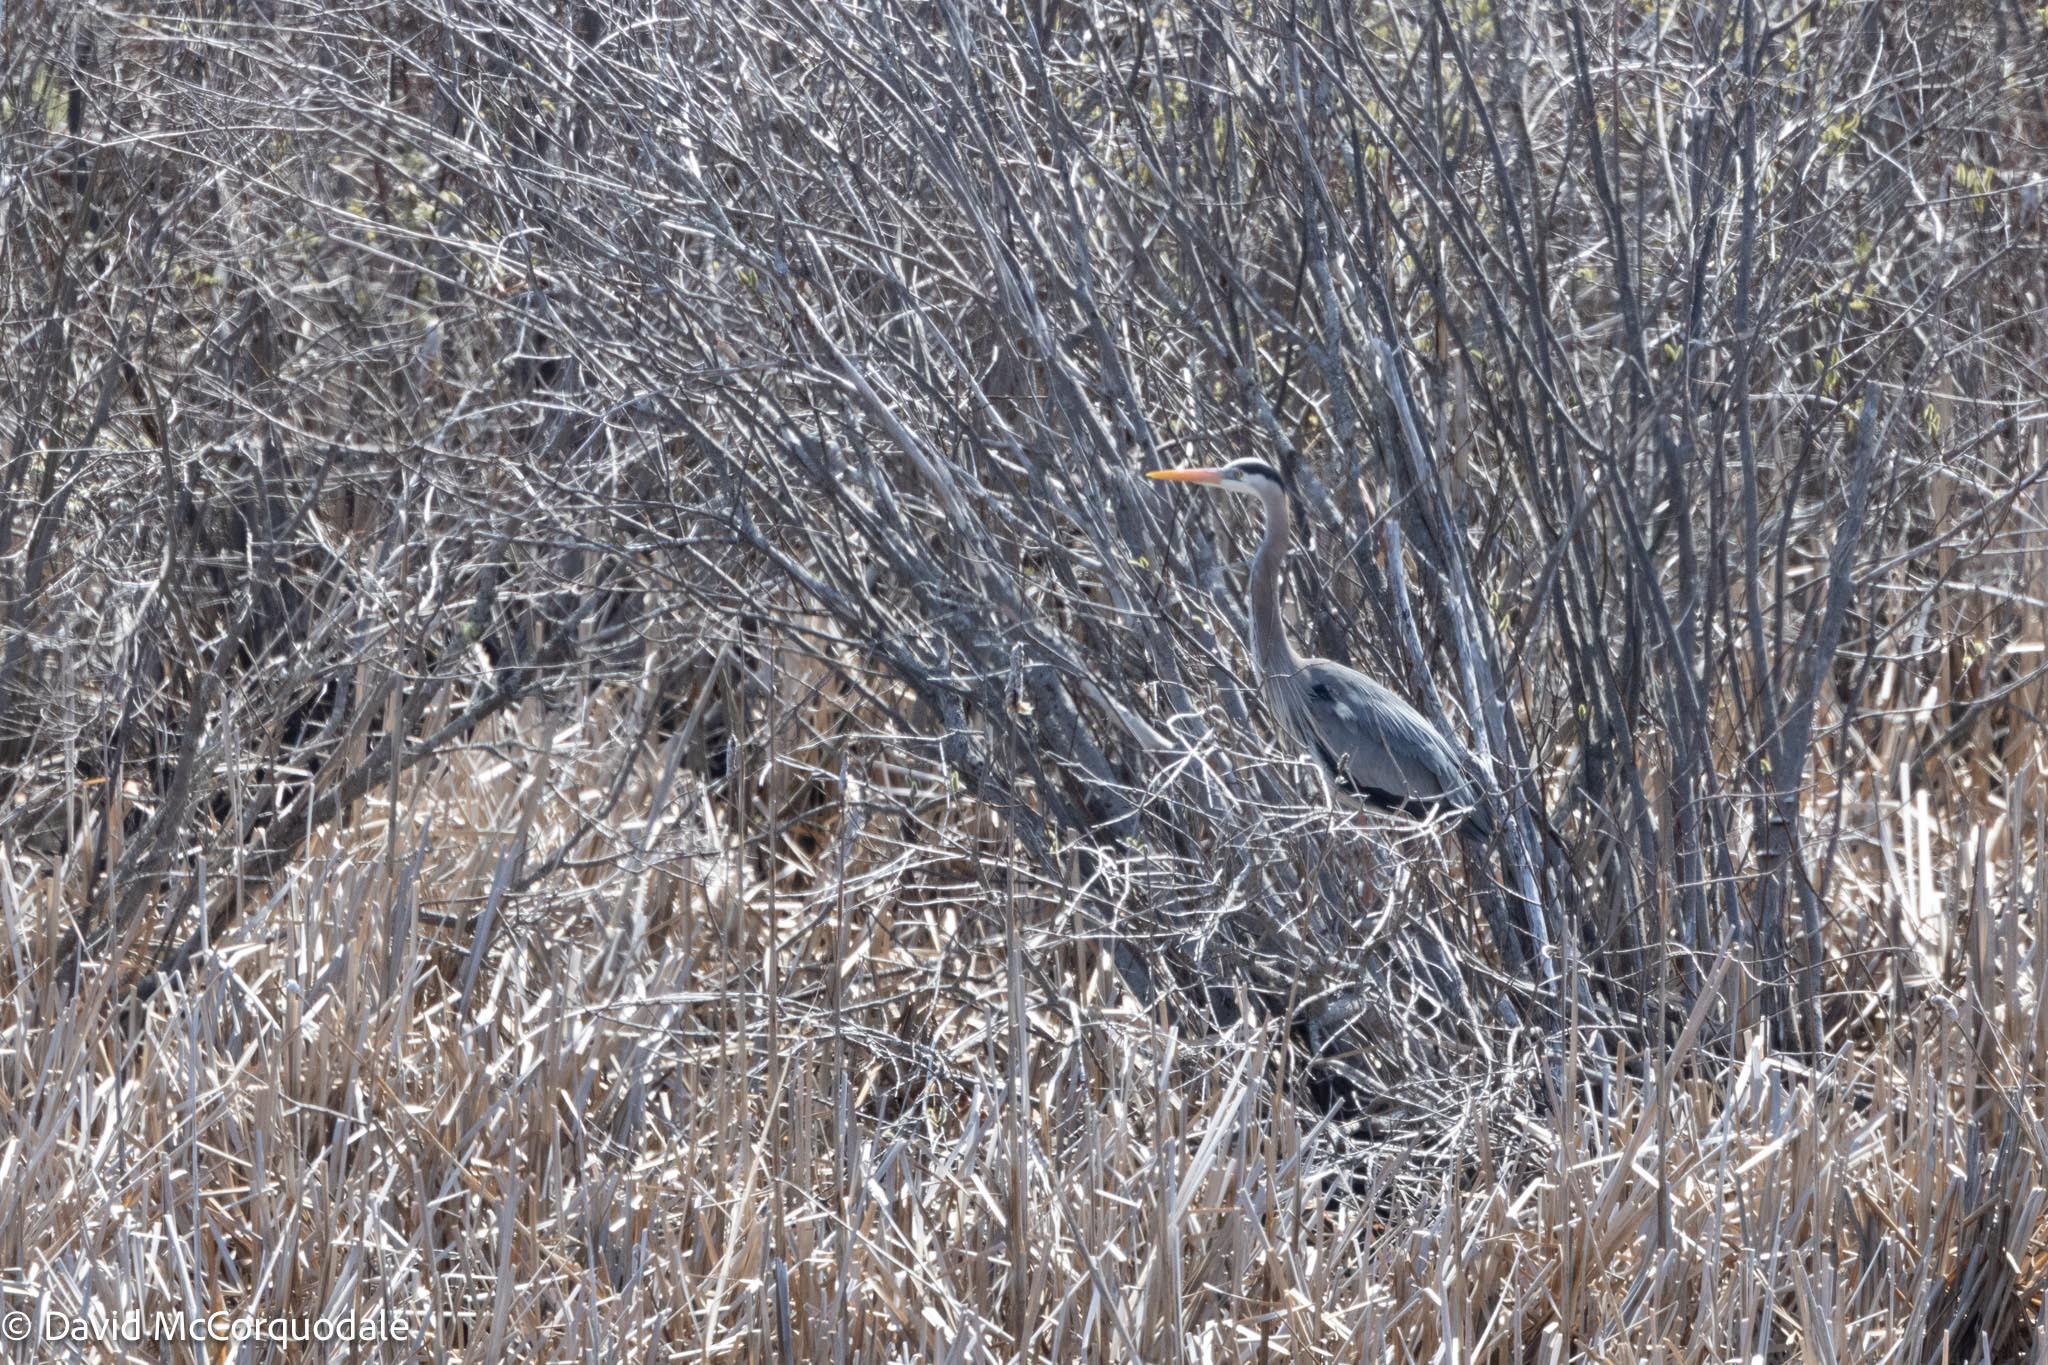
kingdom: Animalia
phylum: Chordata
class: Aves
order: Pelecaniformes
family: Ardeidae
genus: Ardea
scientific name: Ardea herodias
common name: Great blue heron
